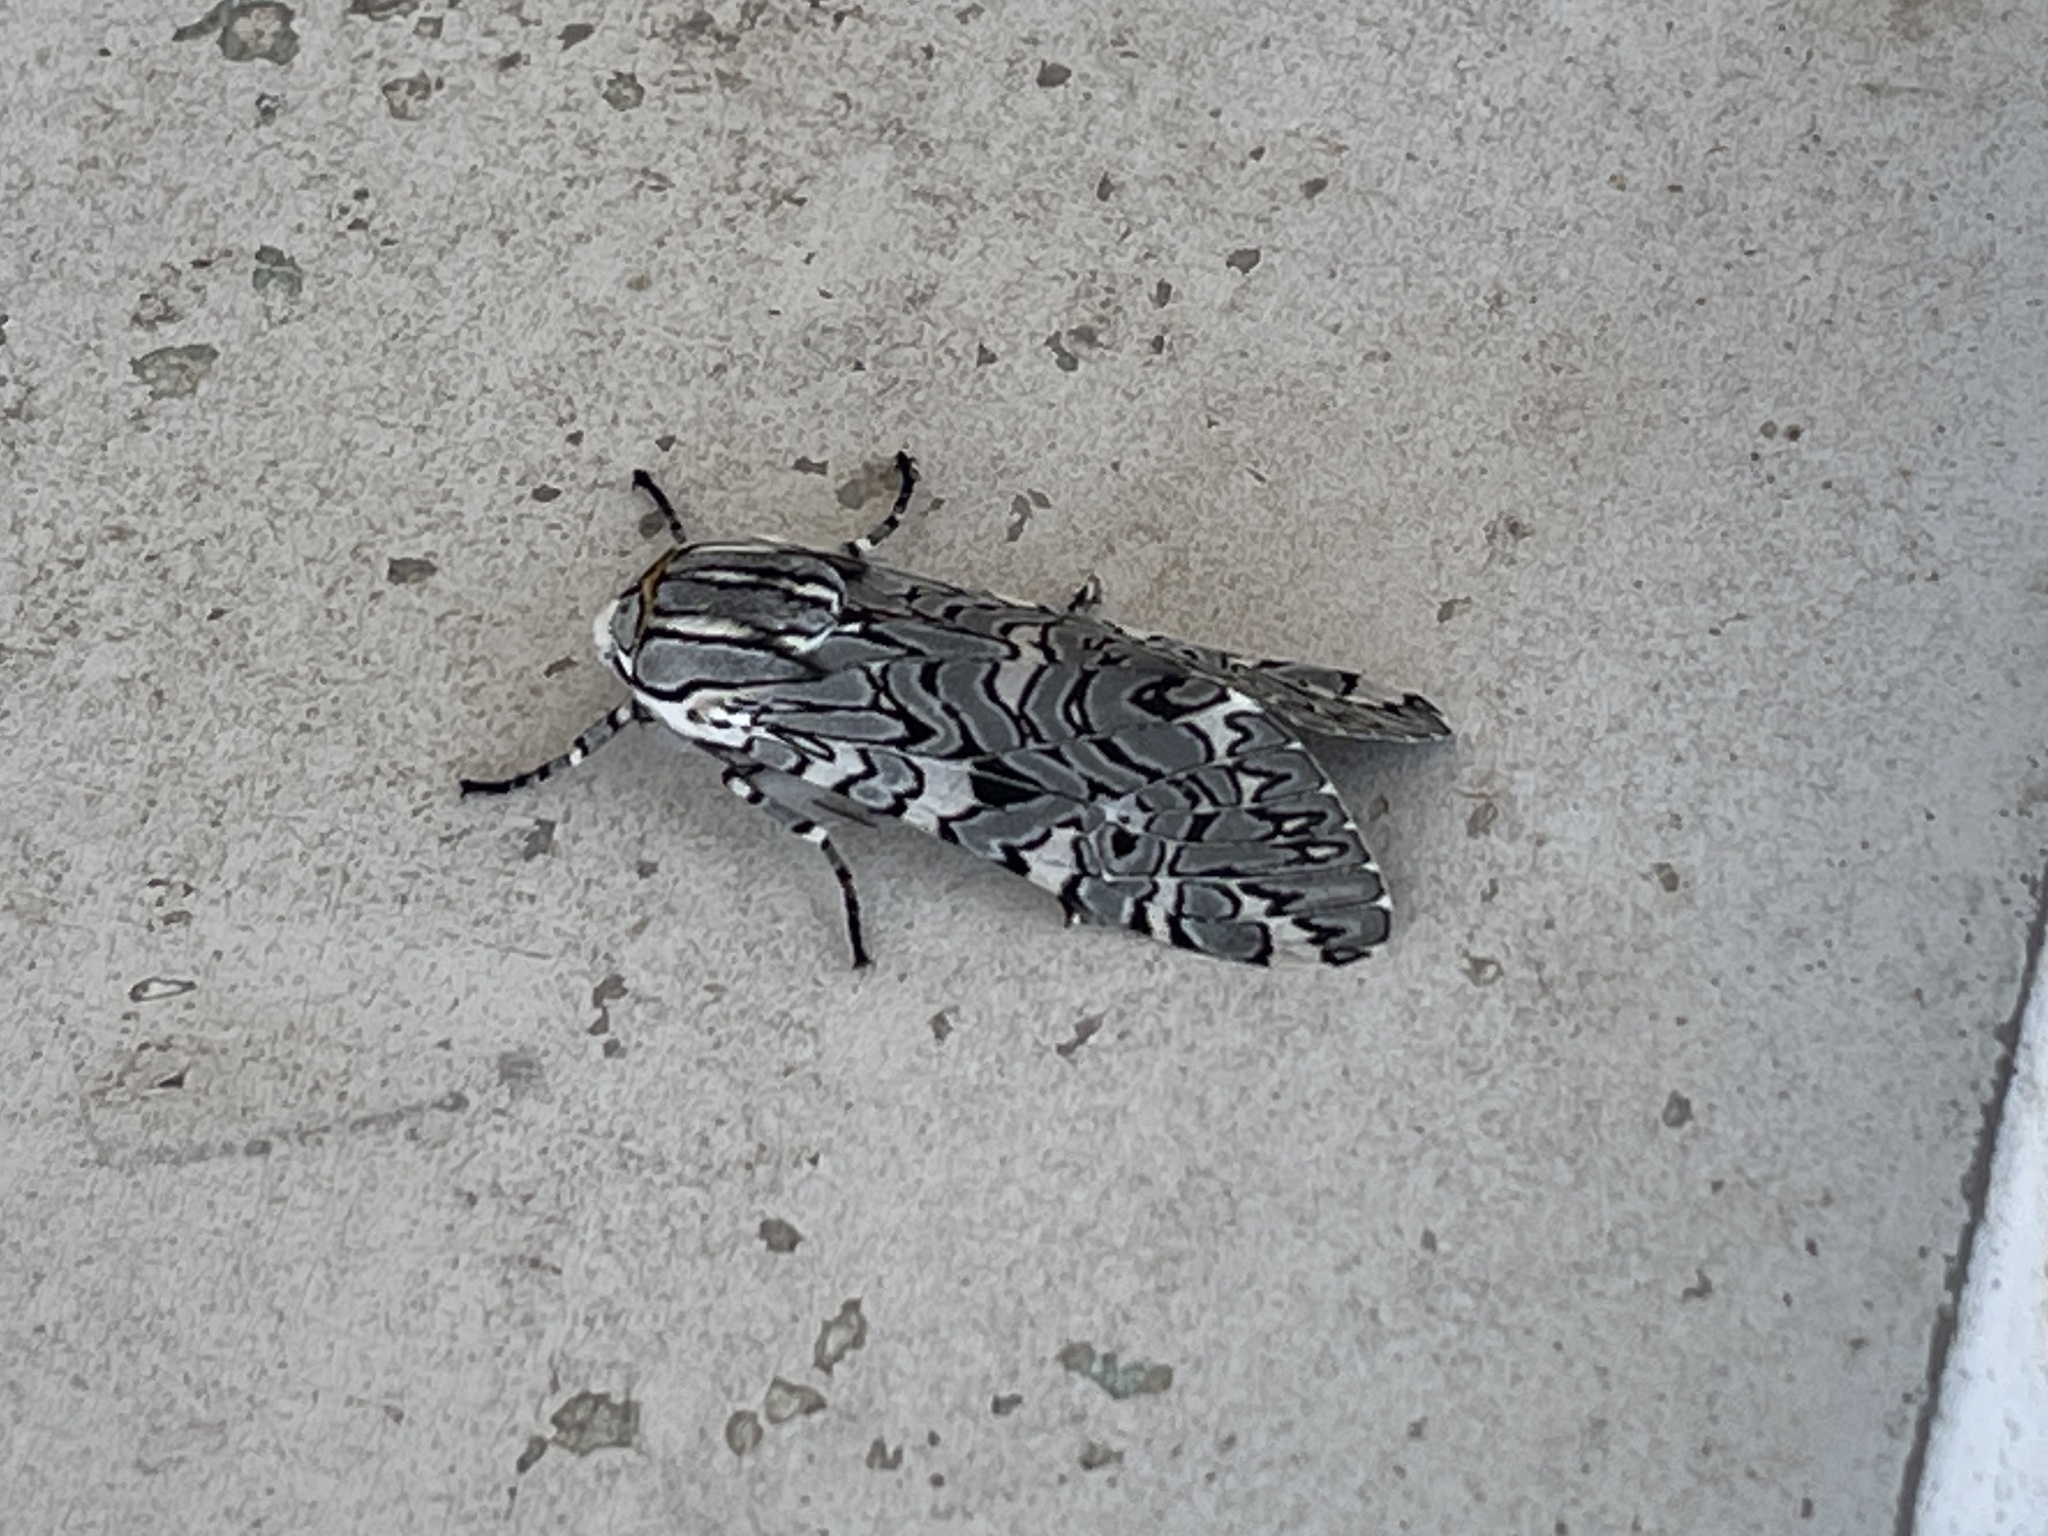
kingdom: Animalia
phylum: Arthropoda
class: Insecta
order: Lepidoptera
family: Erebidae
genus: Arachnis
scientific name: Arachnis picta
